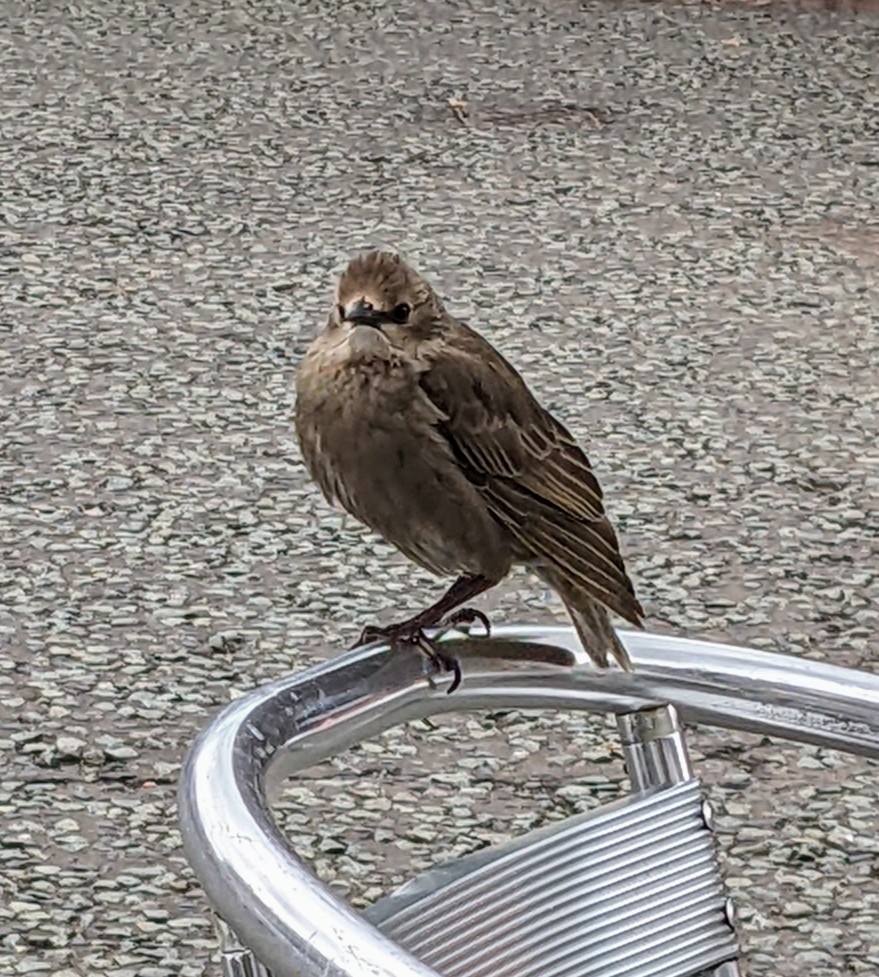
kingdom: Animalia
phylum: Chordata
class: Aves
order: Passeriformes
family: Sturnidae
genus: Sturnus
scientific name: Sturnus vulgaris
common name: Common starling
